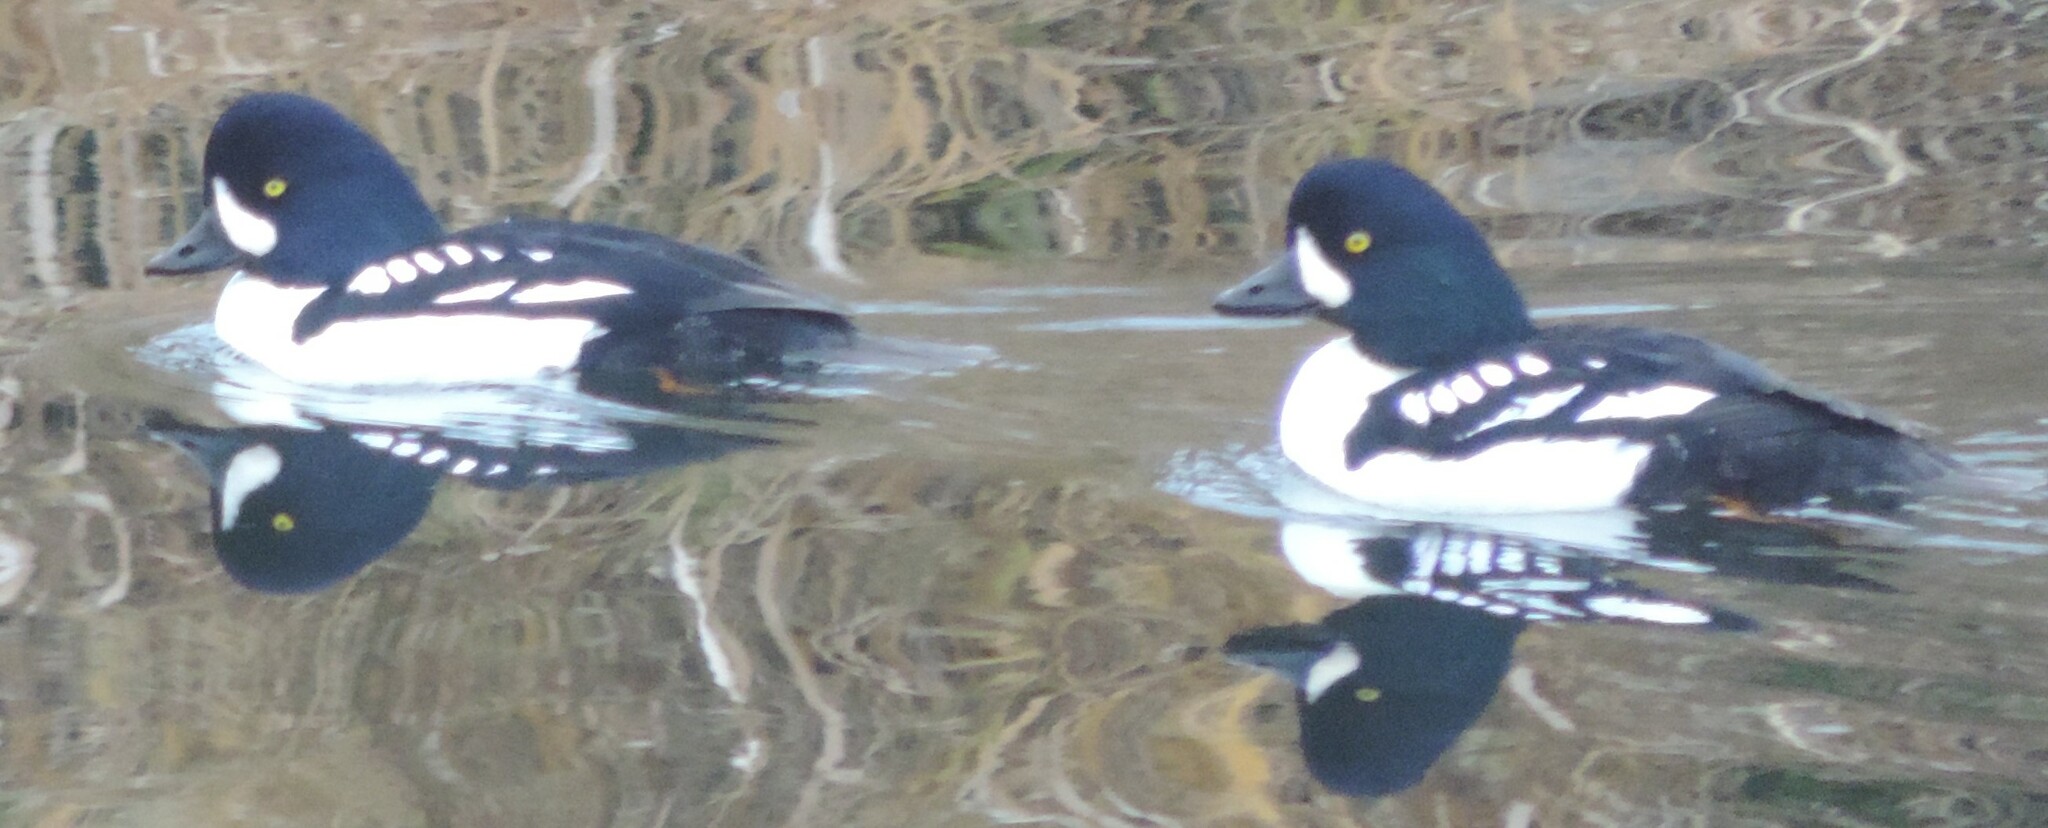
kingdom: Animalia
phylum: Chordata
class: Aves
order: Anseriformes
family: Anatidae
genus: Bucephala
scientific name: Bucephala islandica
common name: Barrow's goldeneye
